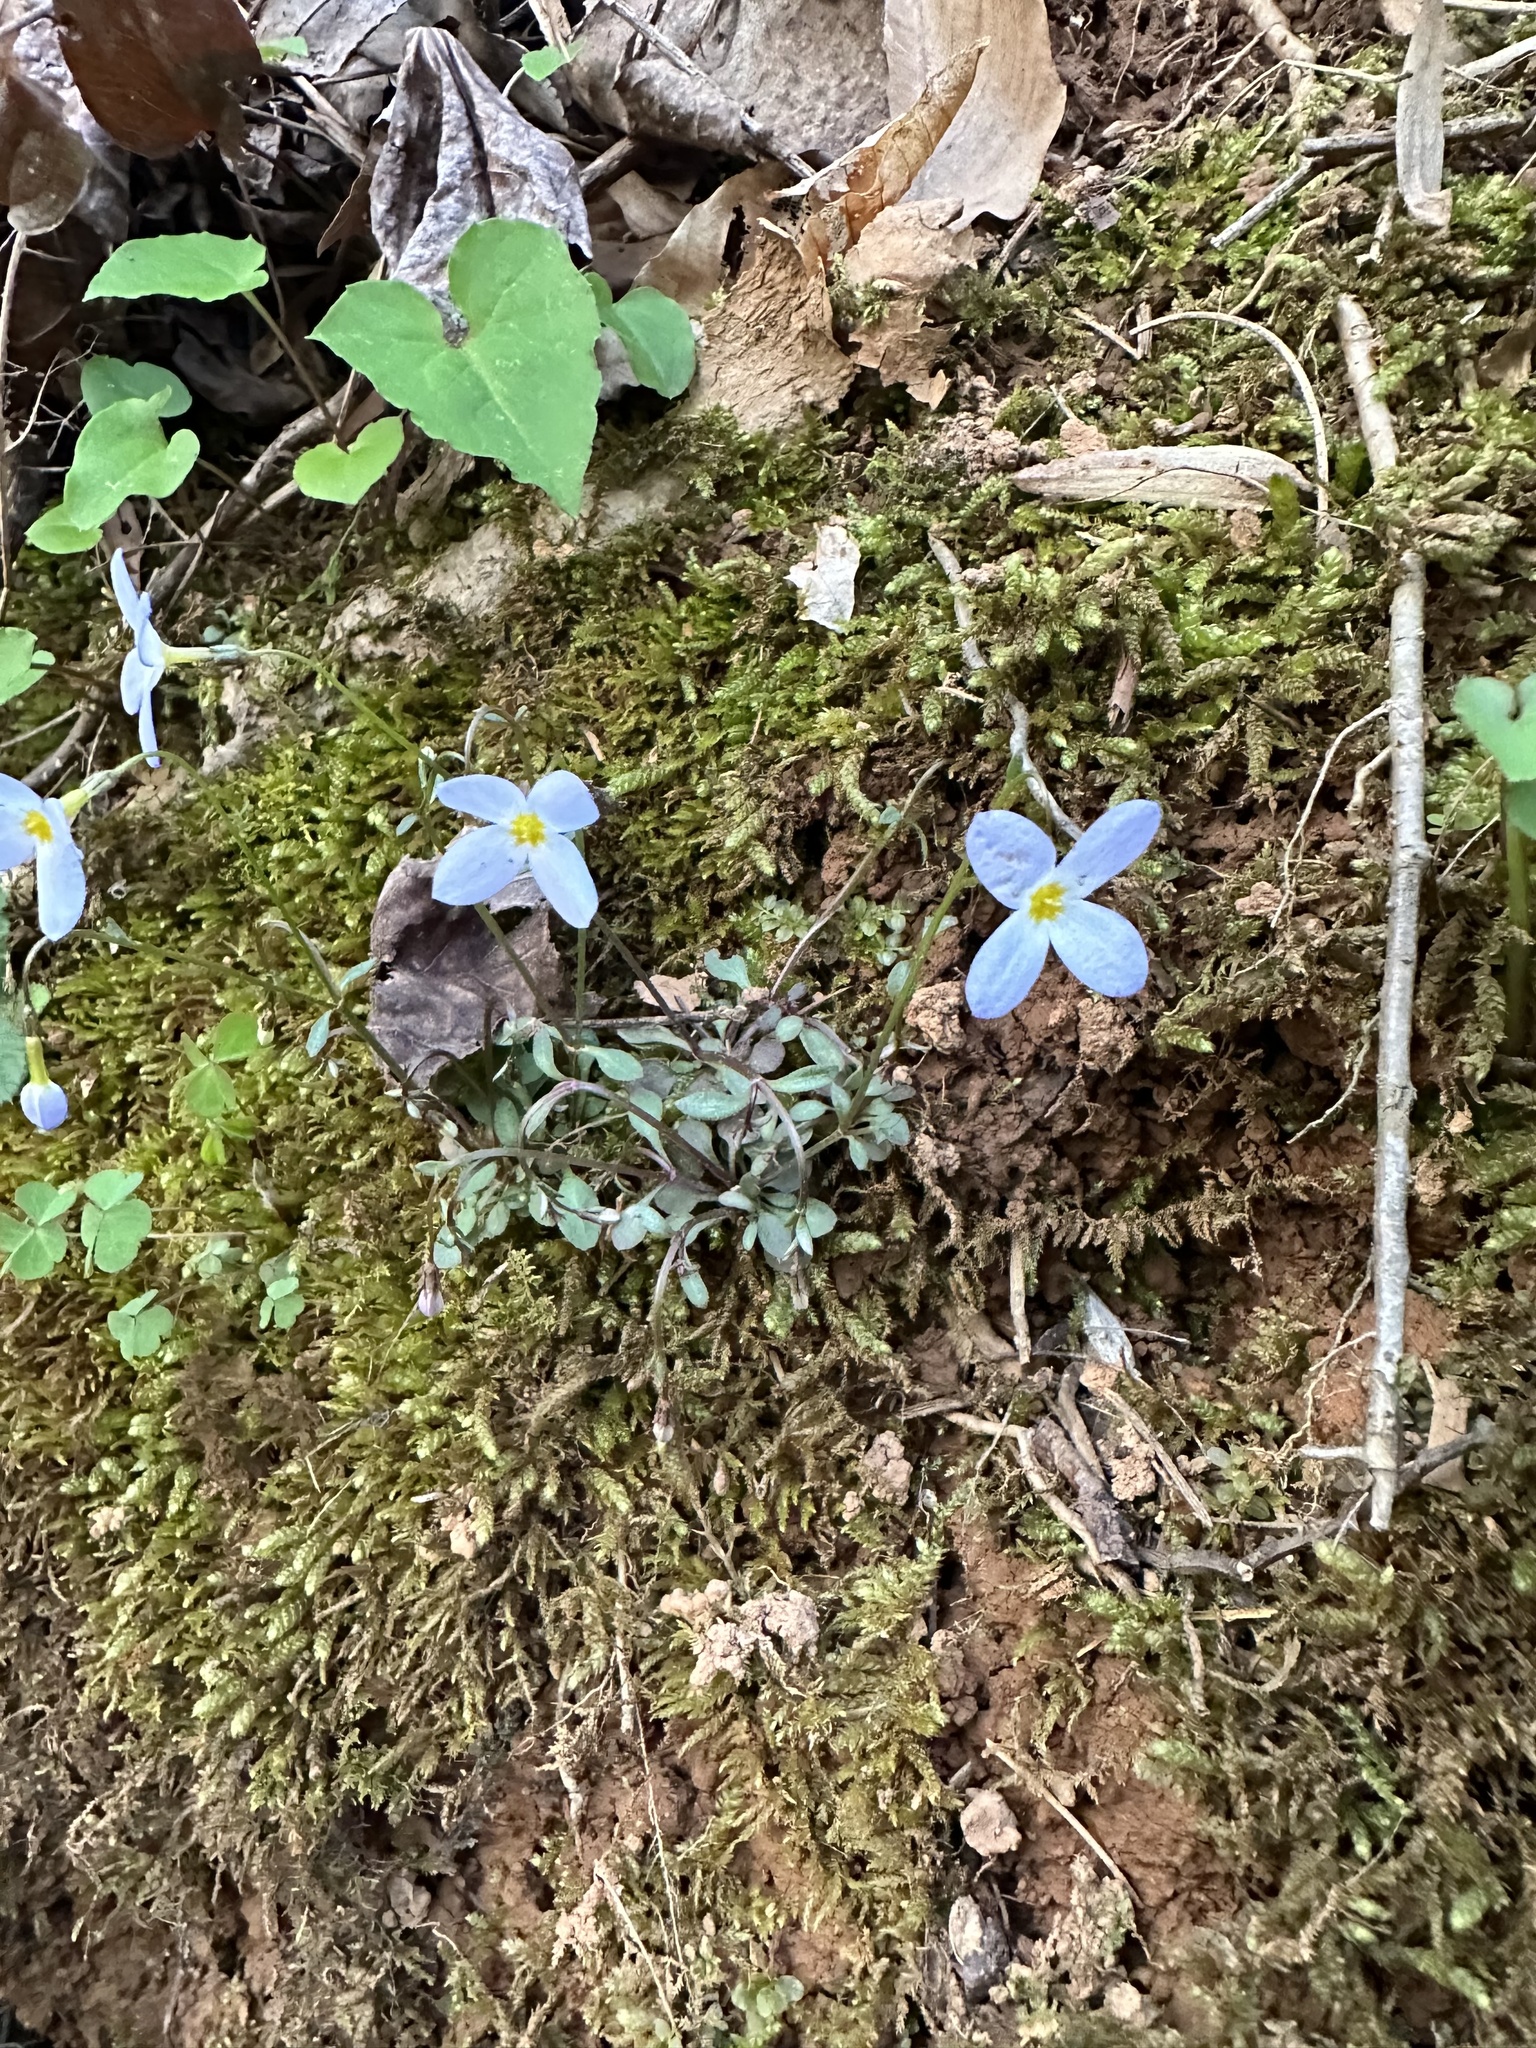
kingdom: Plantae
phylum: Tracheophyta
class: Magnoliopsida
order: Gentianales
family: Rubiaceae
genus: Houstonia
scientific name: Houstonia caerulea
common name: Bluets
